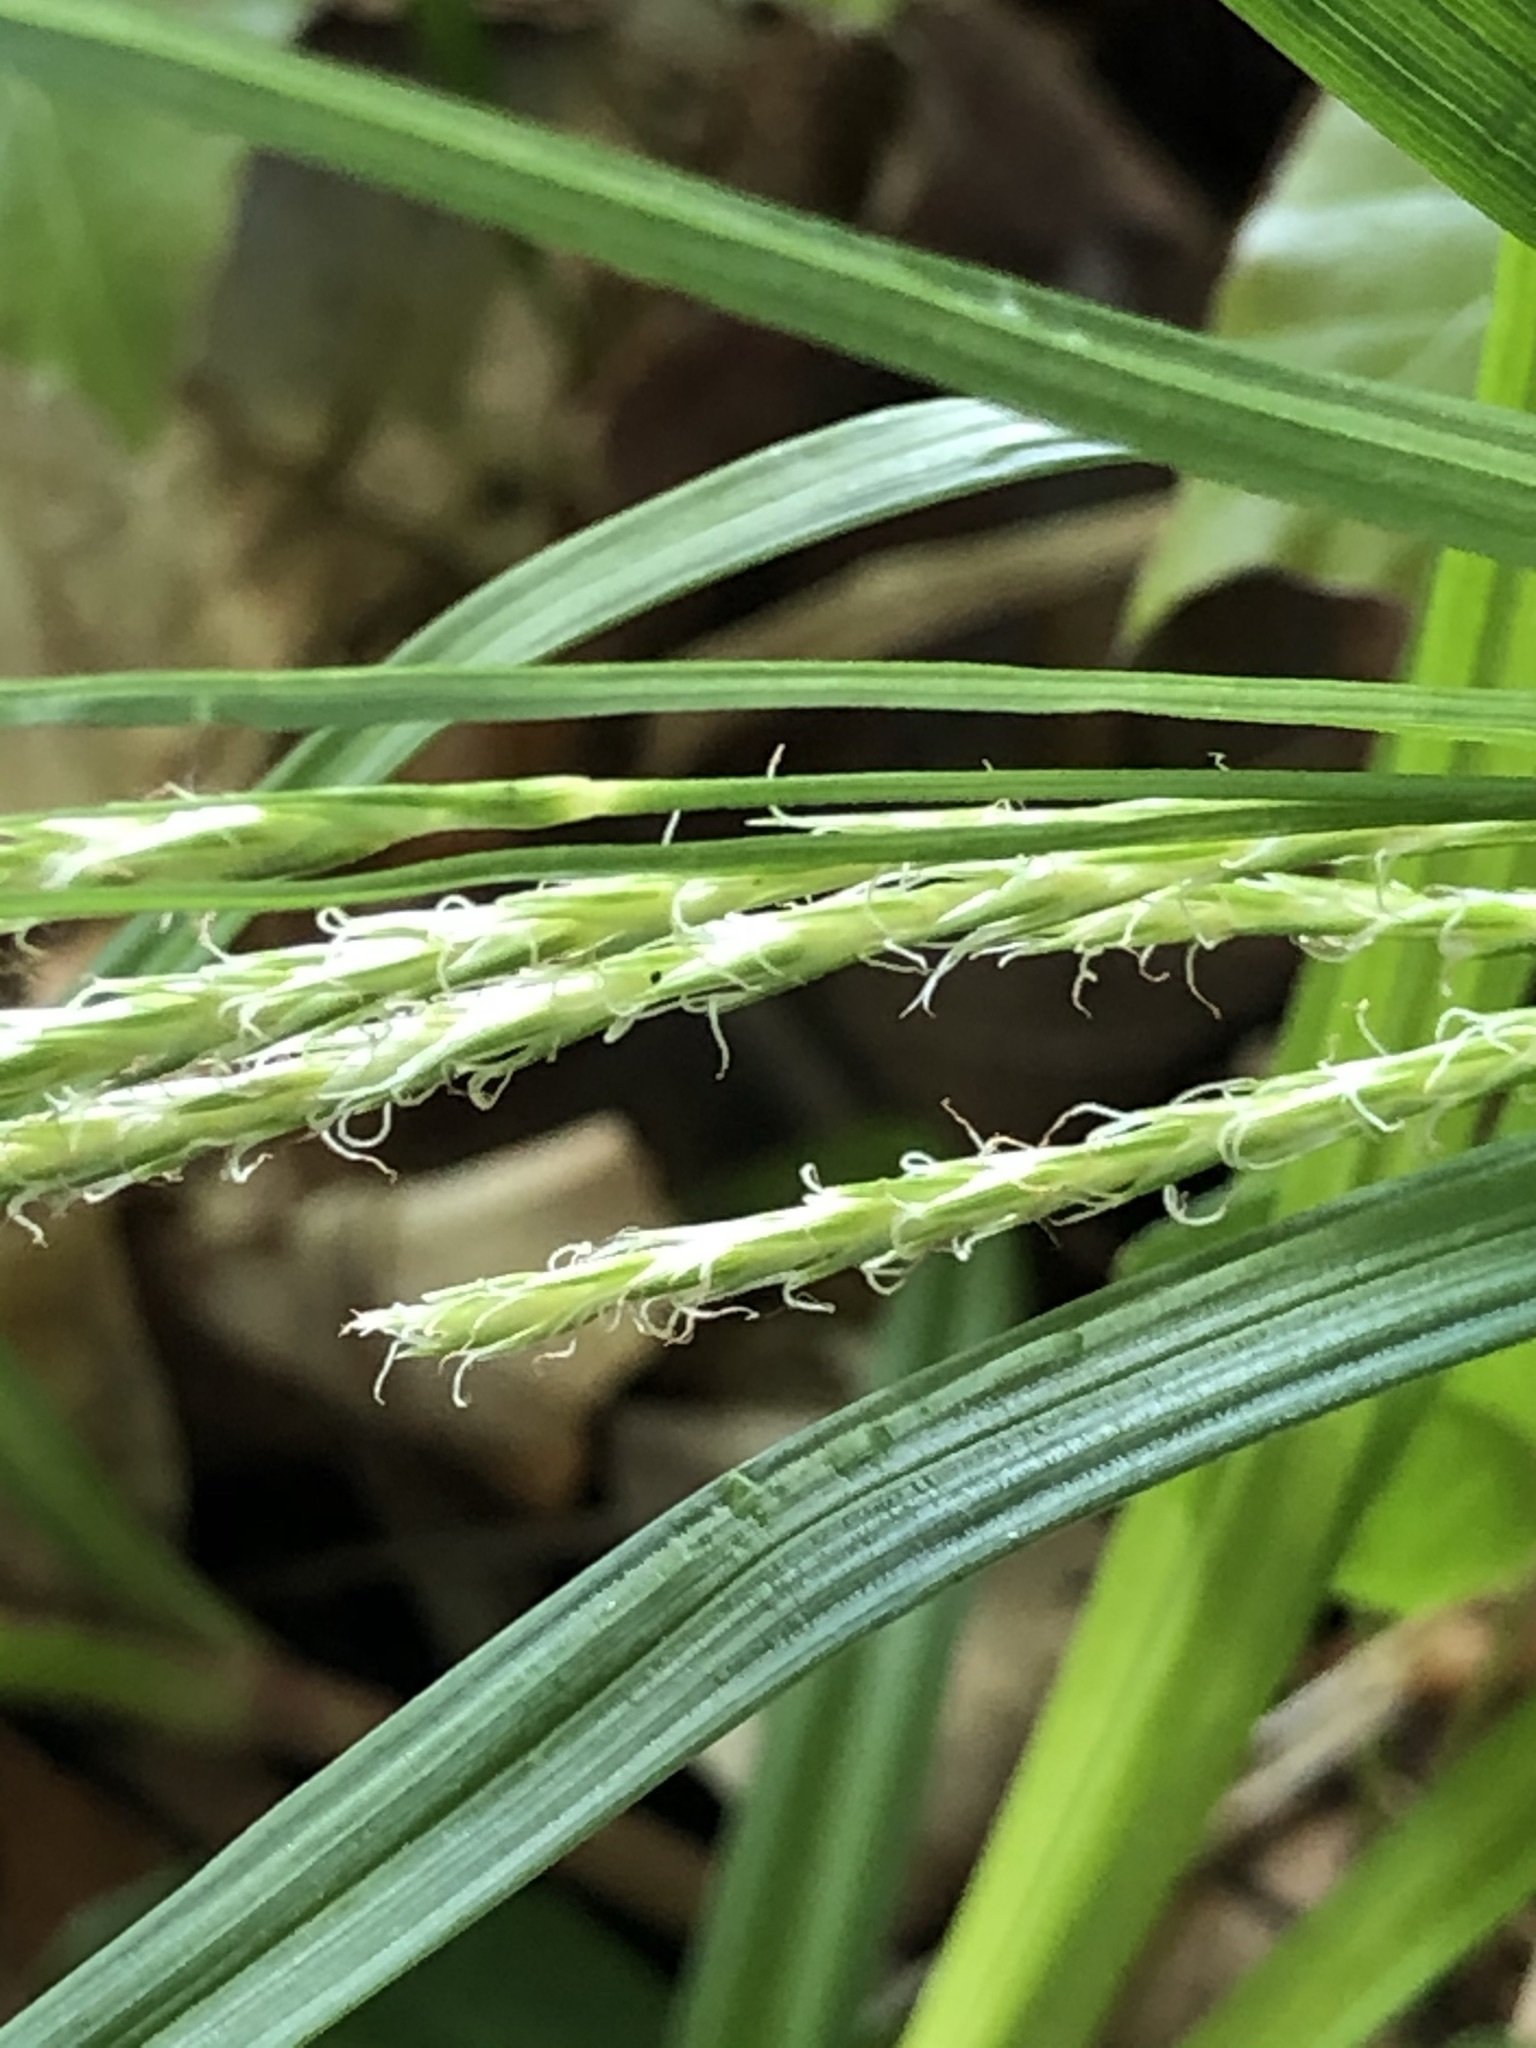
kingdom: Plantae
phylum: Tracheophyta
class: Liliopsida
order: Poales
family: Cyperaceae
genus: Carex
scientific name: Carex sylvatica
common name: Wood-sedge
